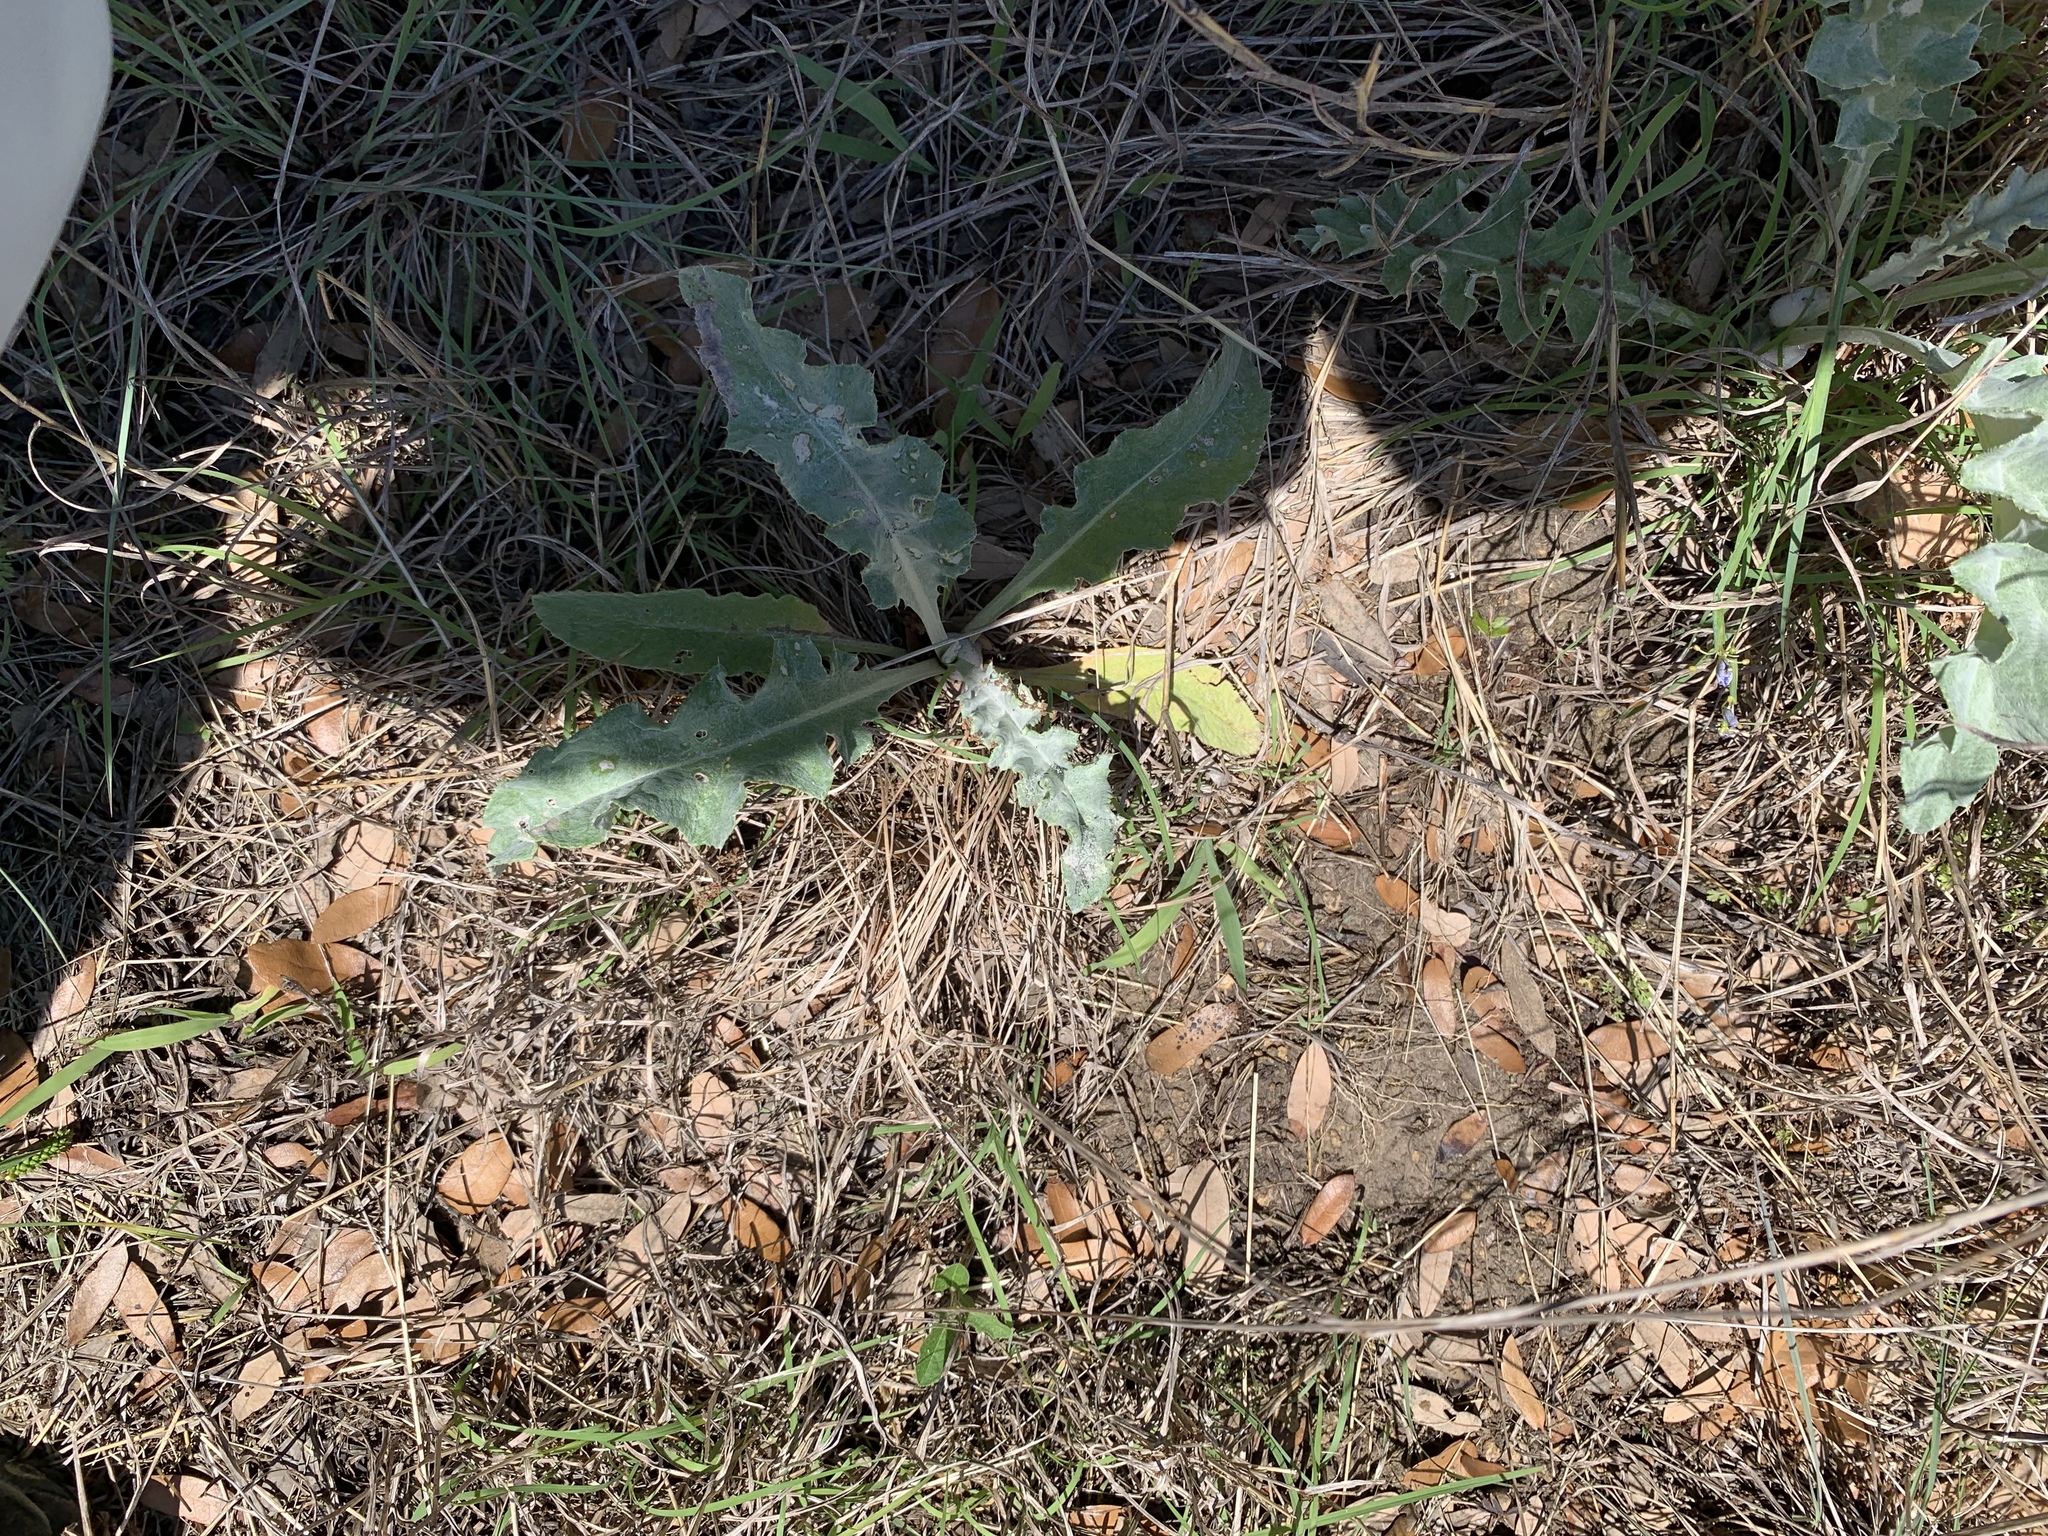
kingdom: Plantae
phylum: Tracheophyta
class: Magnoliopsida
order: Asterales
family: Asteraceae
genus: Cirsium
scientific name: Cirsium undulatum
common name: Pasture thistle
